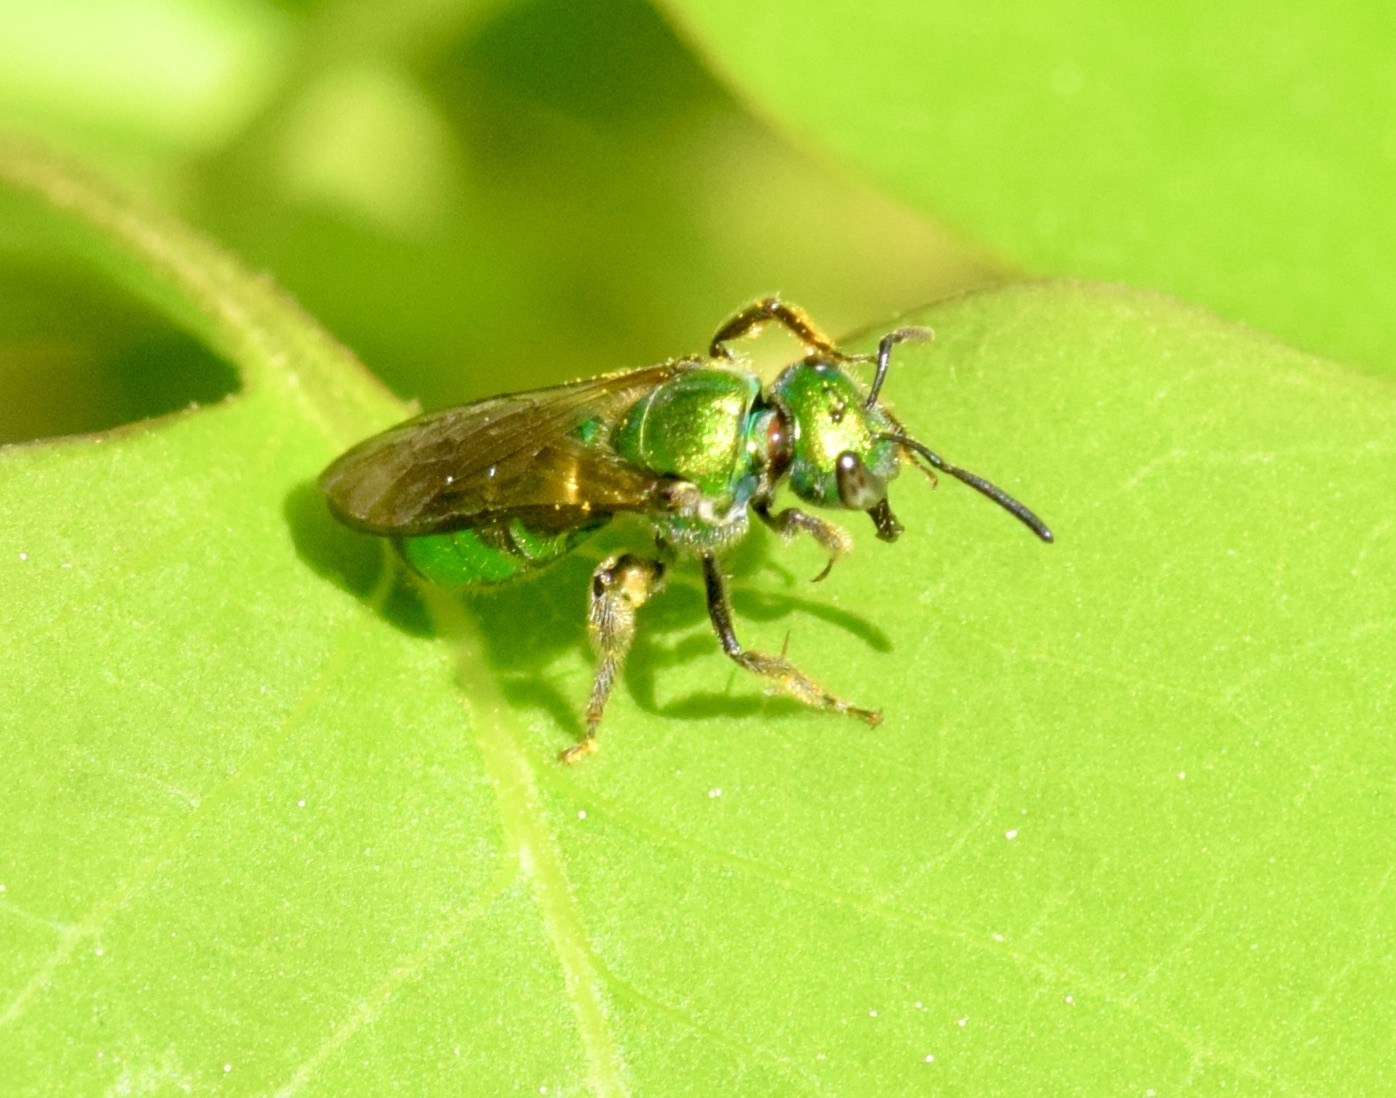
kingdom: Animalia
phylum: Arthropoda
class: Insecta
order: Hymenoptera
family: Halictidae
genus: Augochlora
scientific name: Augochlora pura
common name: Pure green sweat bee
